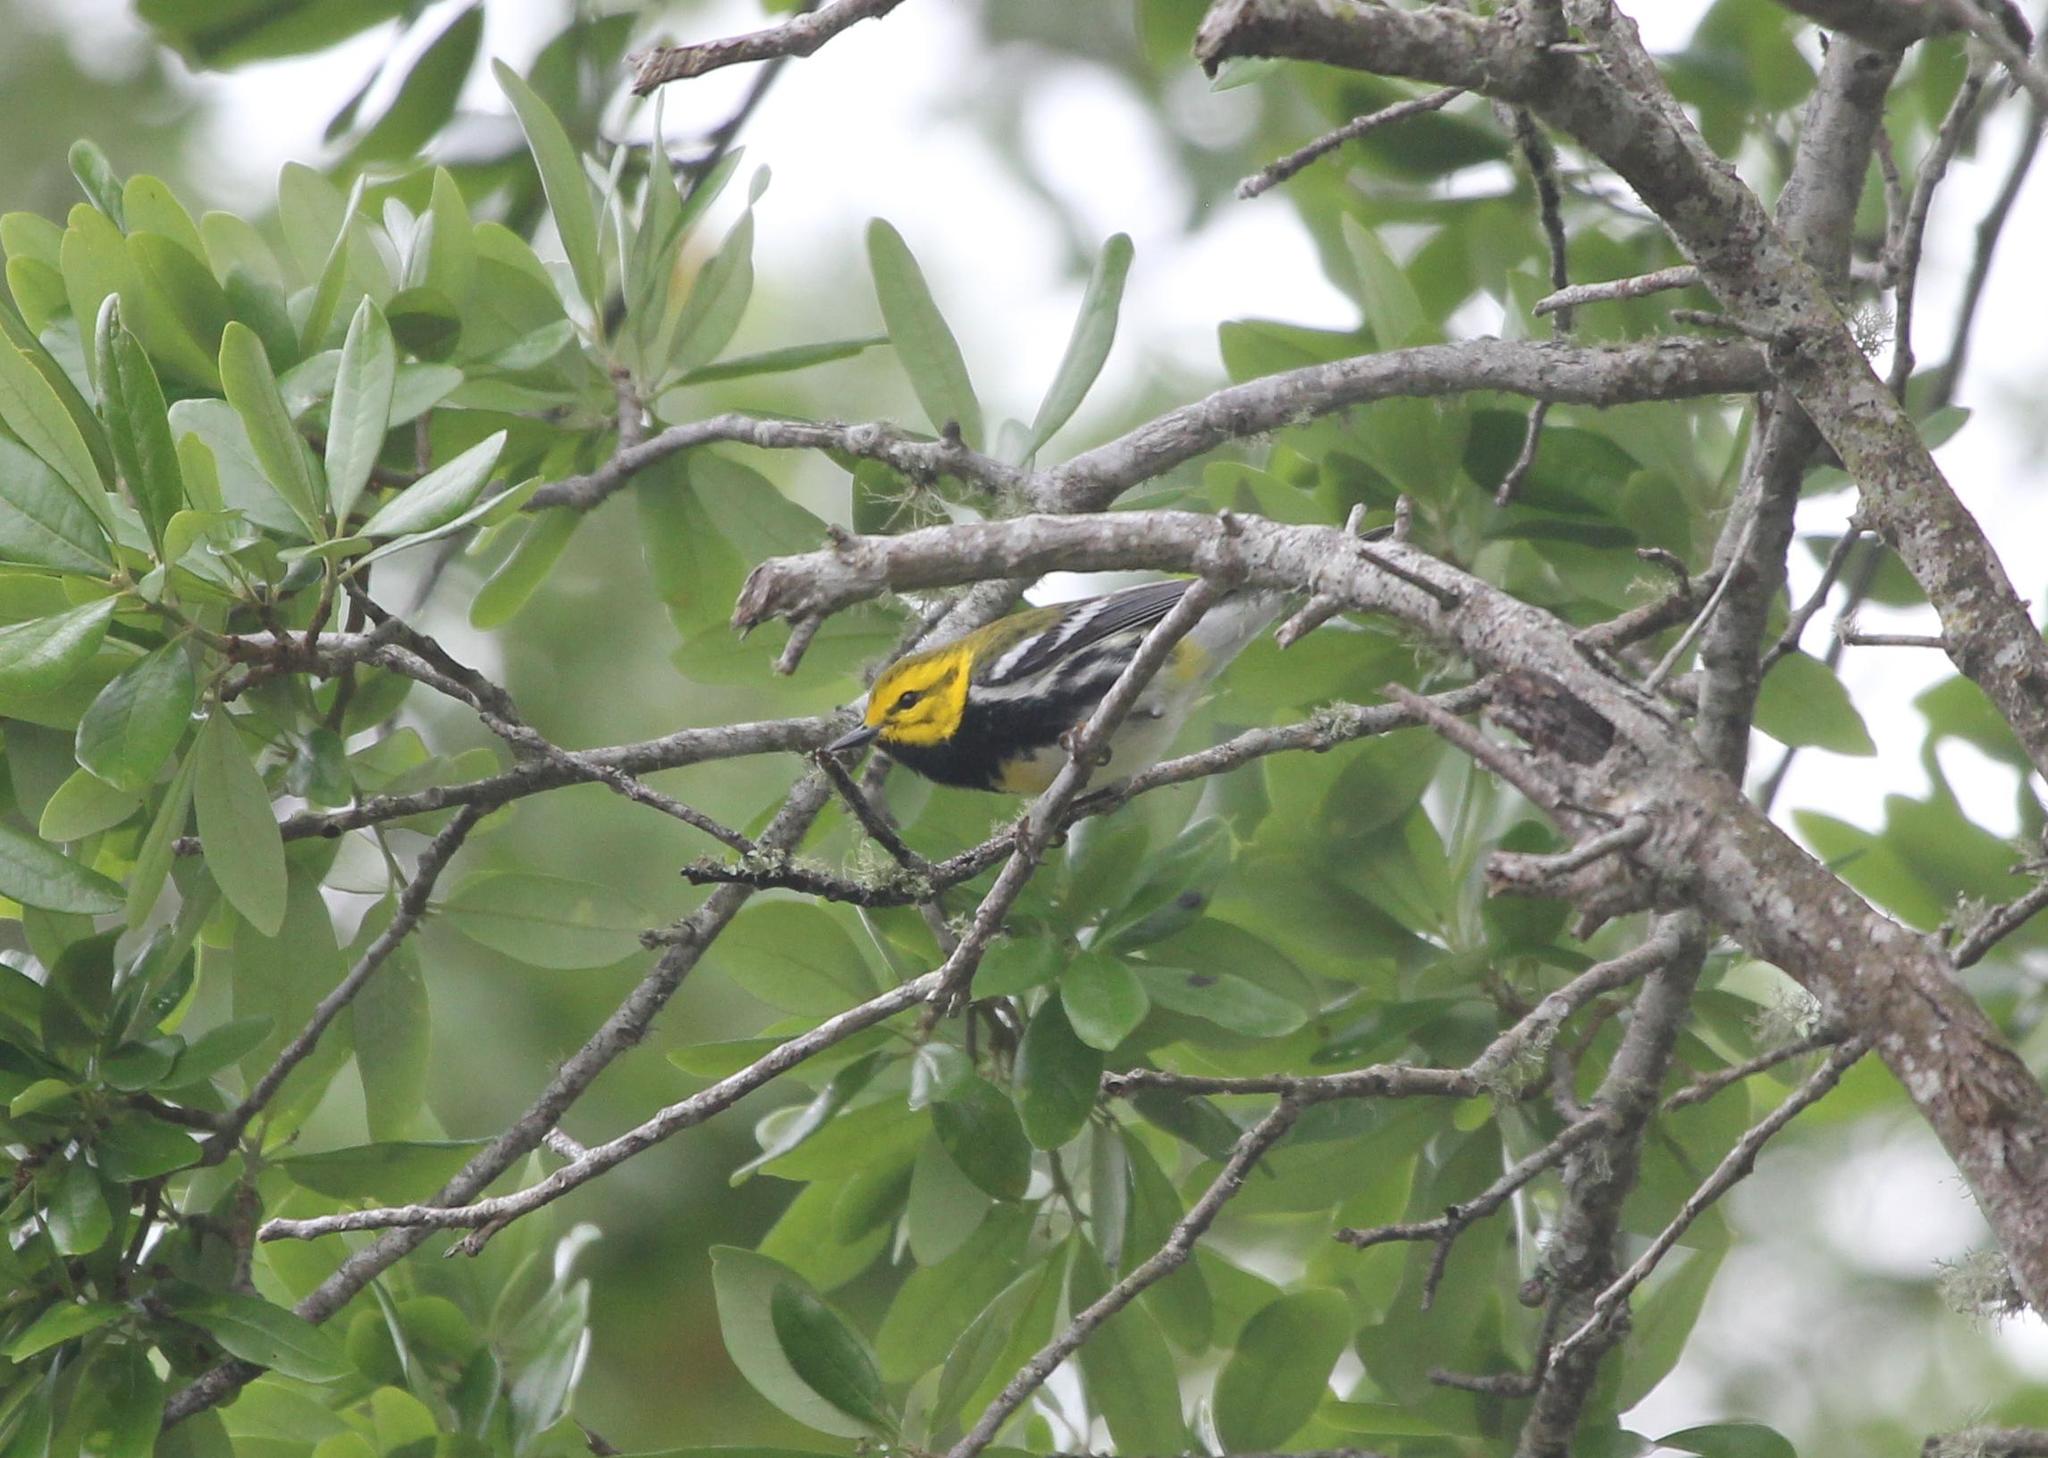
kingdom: Animalia
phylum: Chordata
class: Aves
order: Passeriformes
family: Parulidae
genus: Setophaga
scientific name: Setophaga virens
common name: Black-throated green warbler
